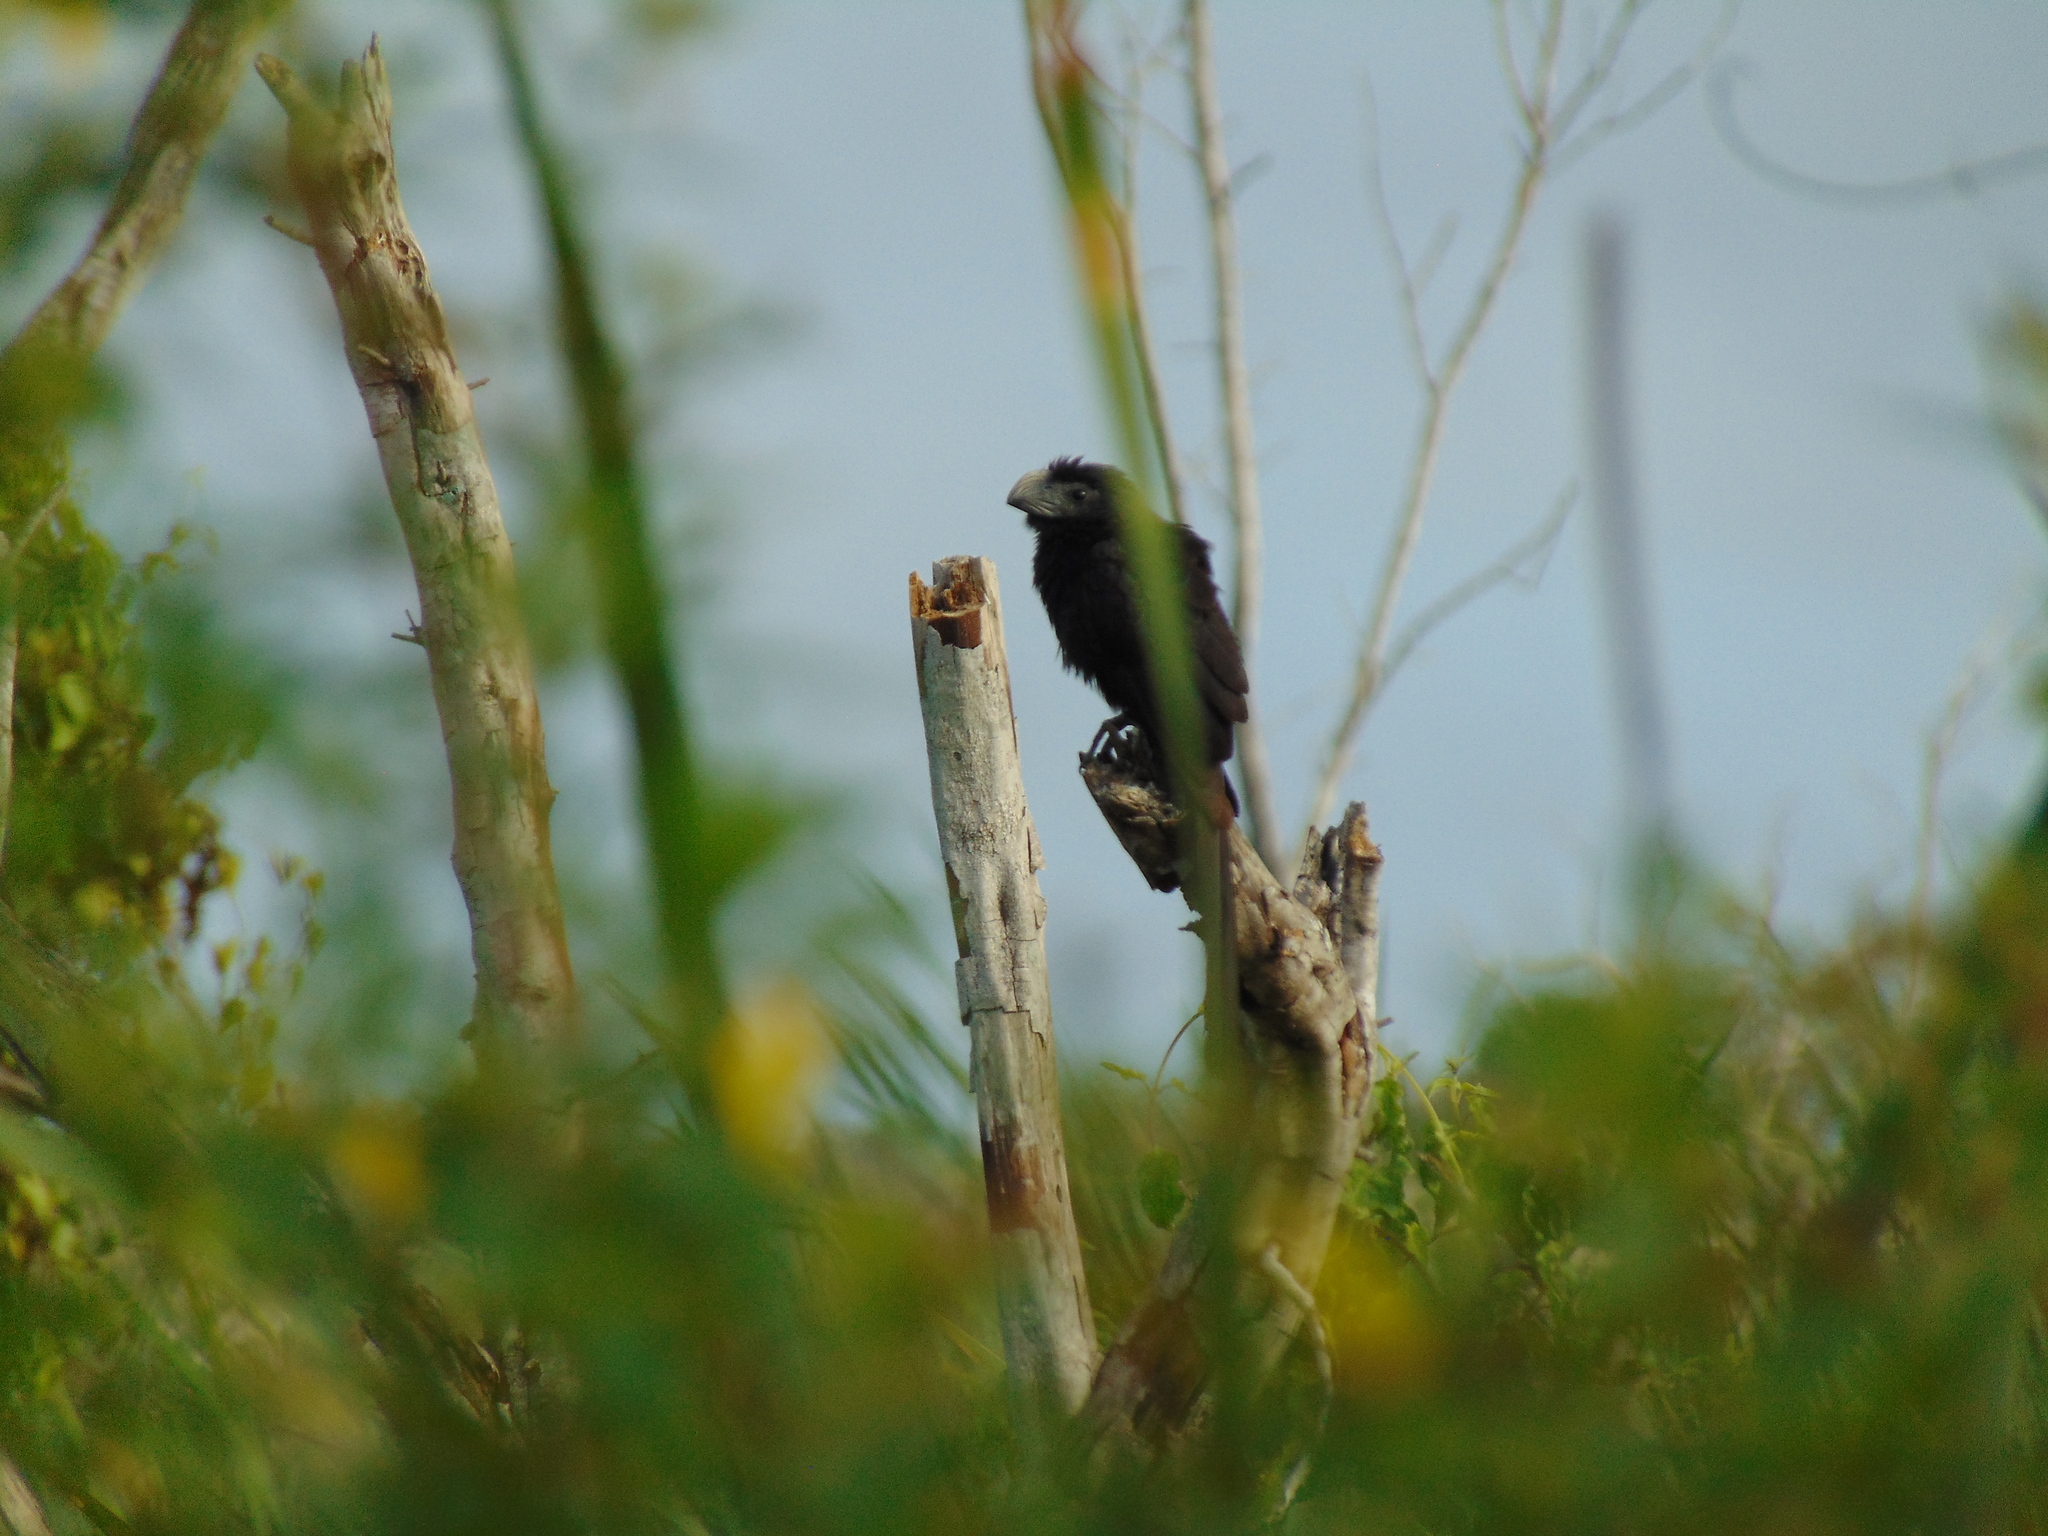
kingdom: Animalia
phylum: Chordata
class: Aves
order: Cuculiformes
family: Cuculidae
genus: Crotophaga
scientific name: Crotophaga sulcirostris
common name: Groove-billed ani
